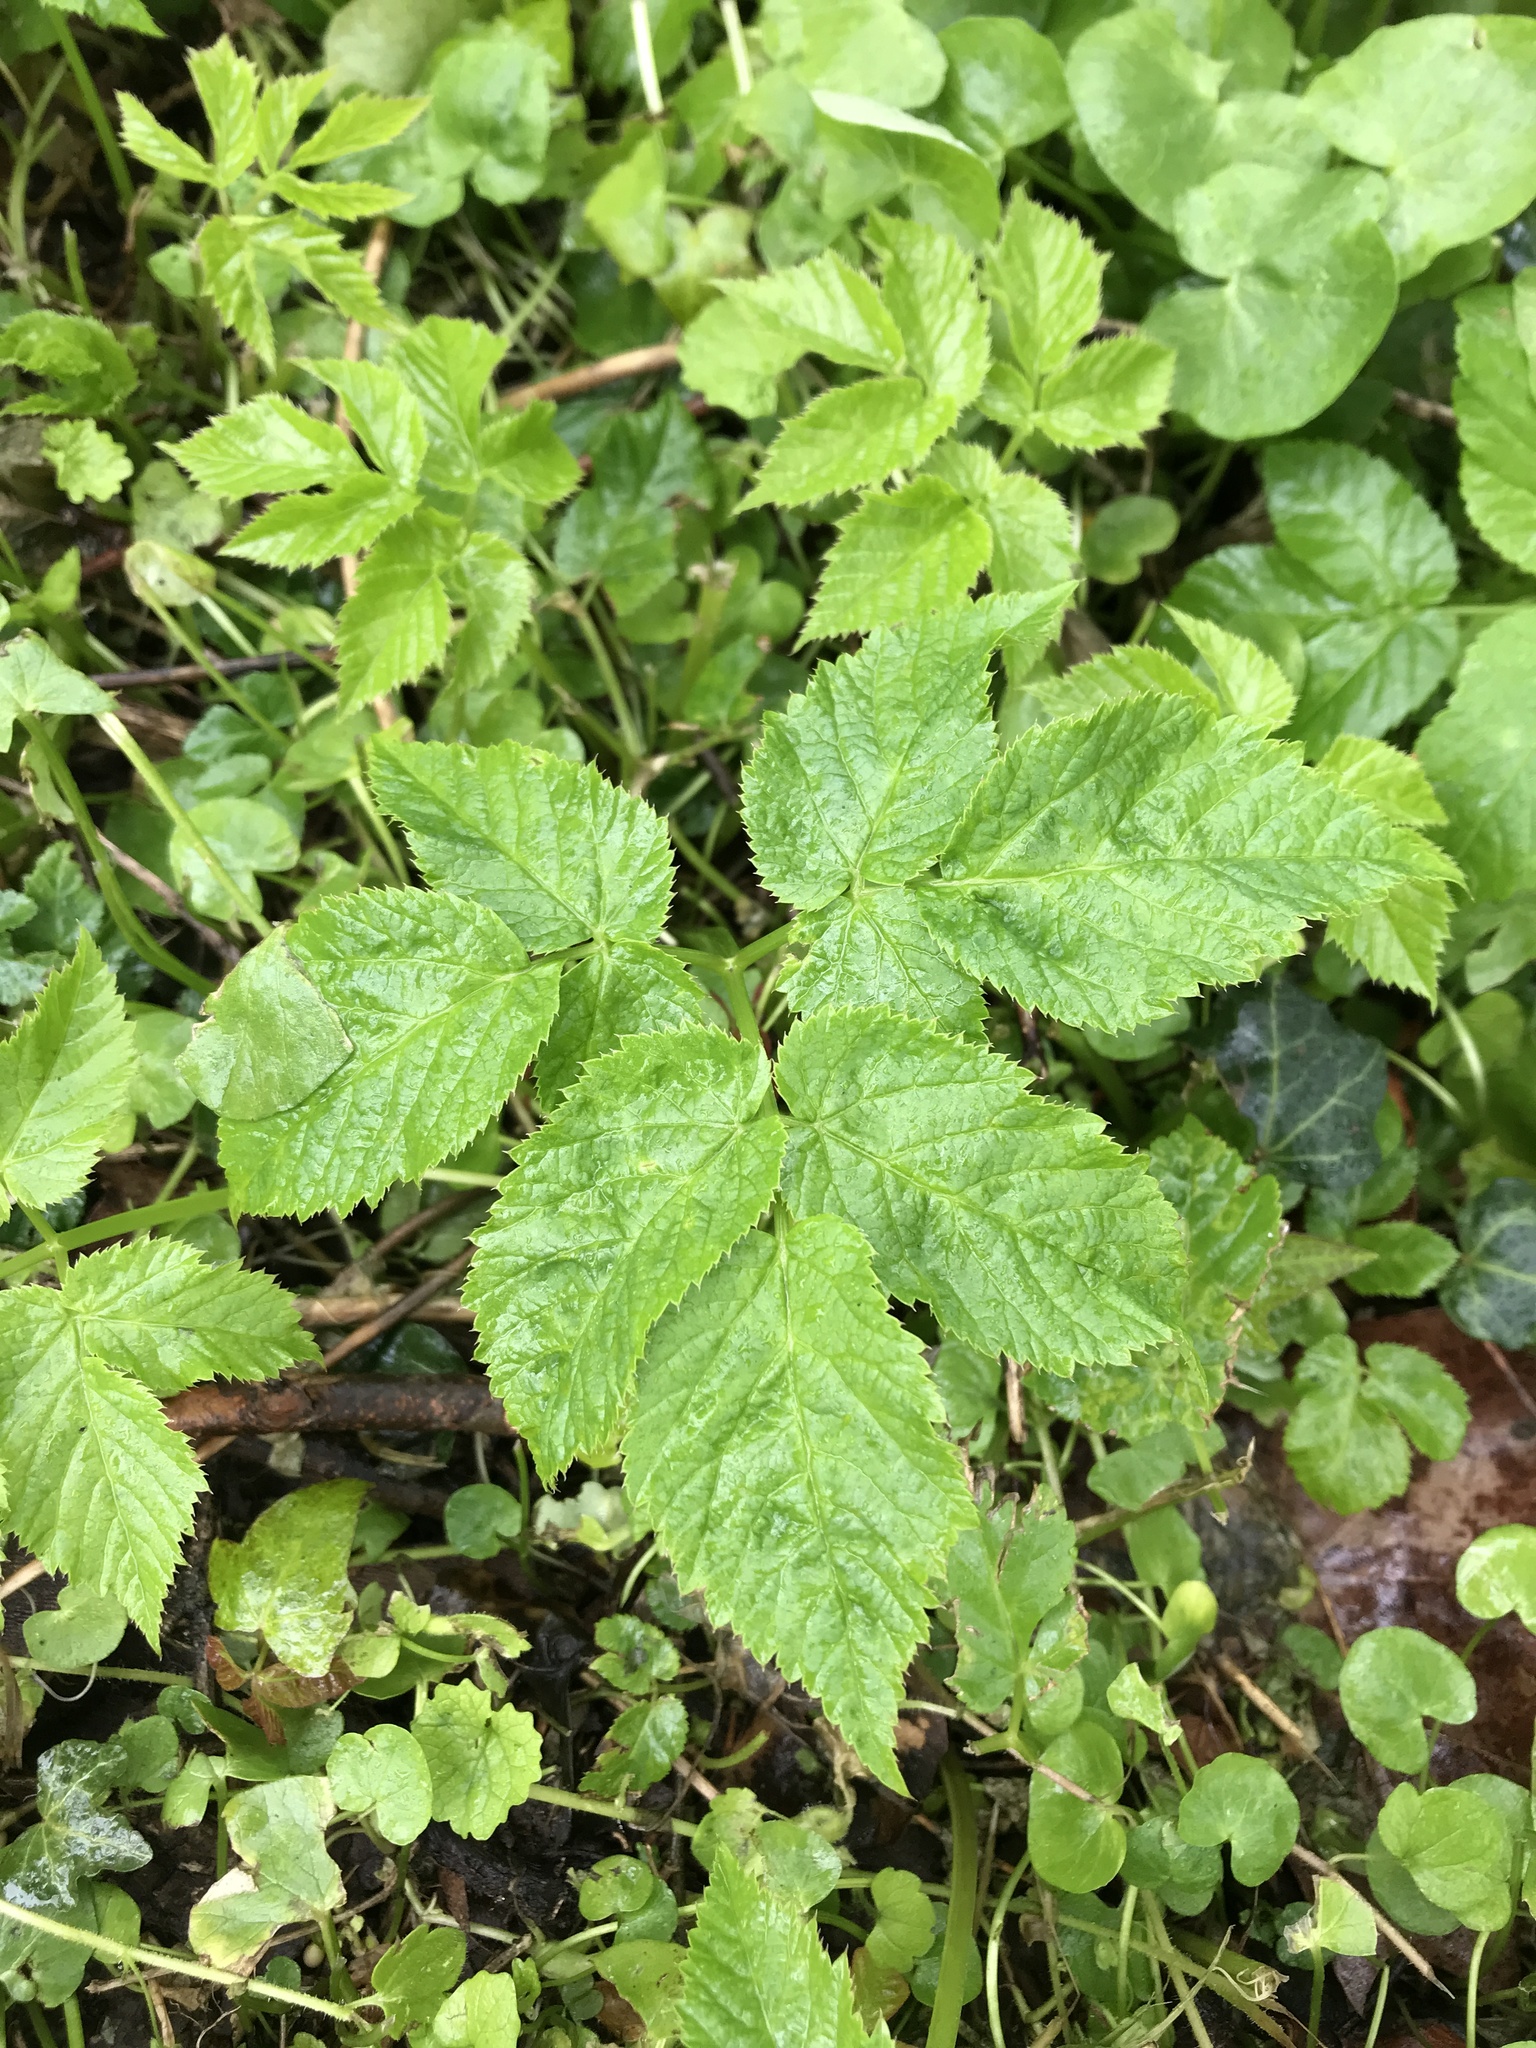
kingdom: Plantae
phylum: Tracheophyta
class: Magnoliopsida
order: Apiales
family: Apiaceae
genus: Aegopodium
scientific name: Aegopodium podagraria
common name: Ground-elder
